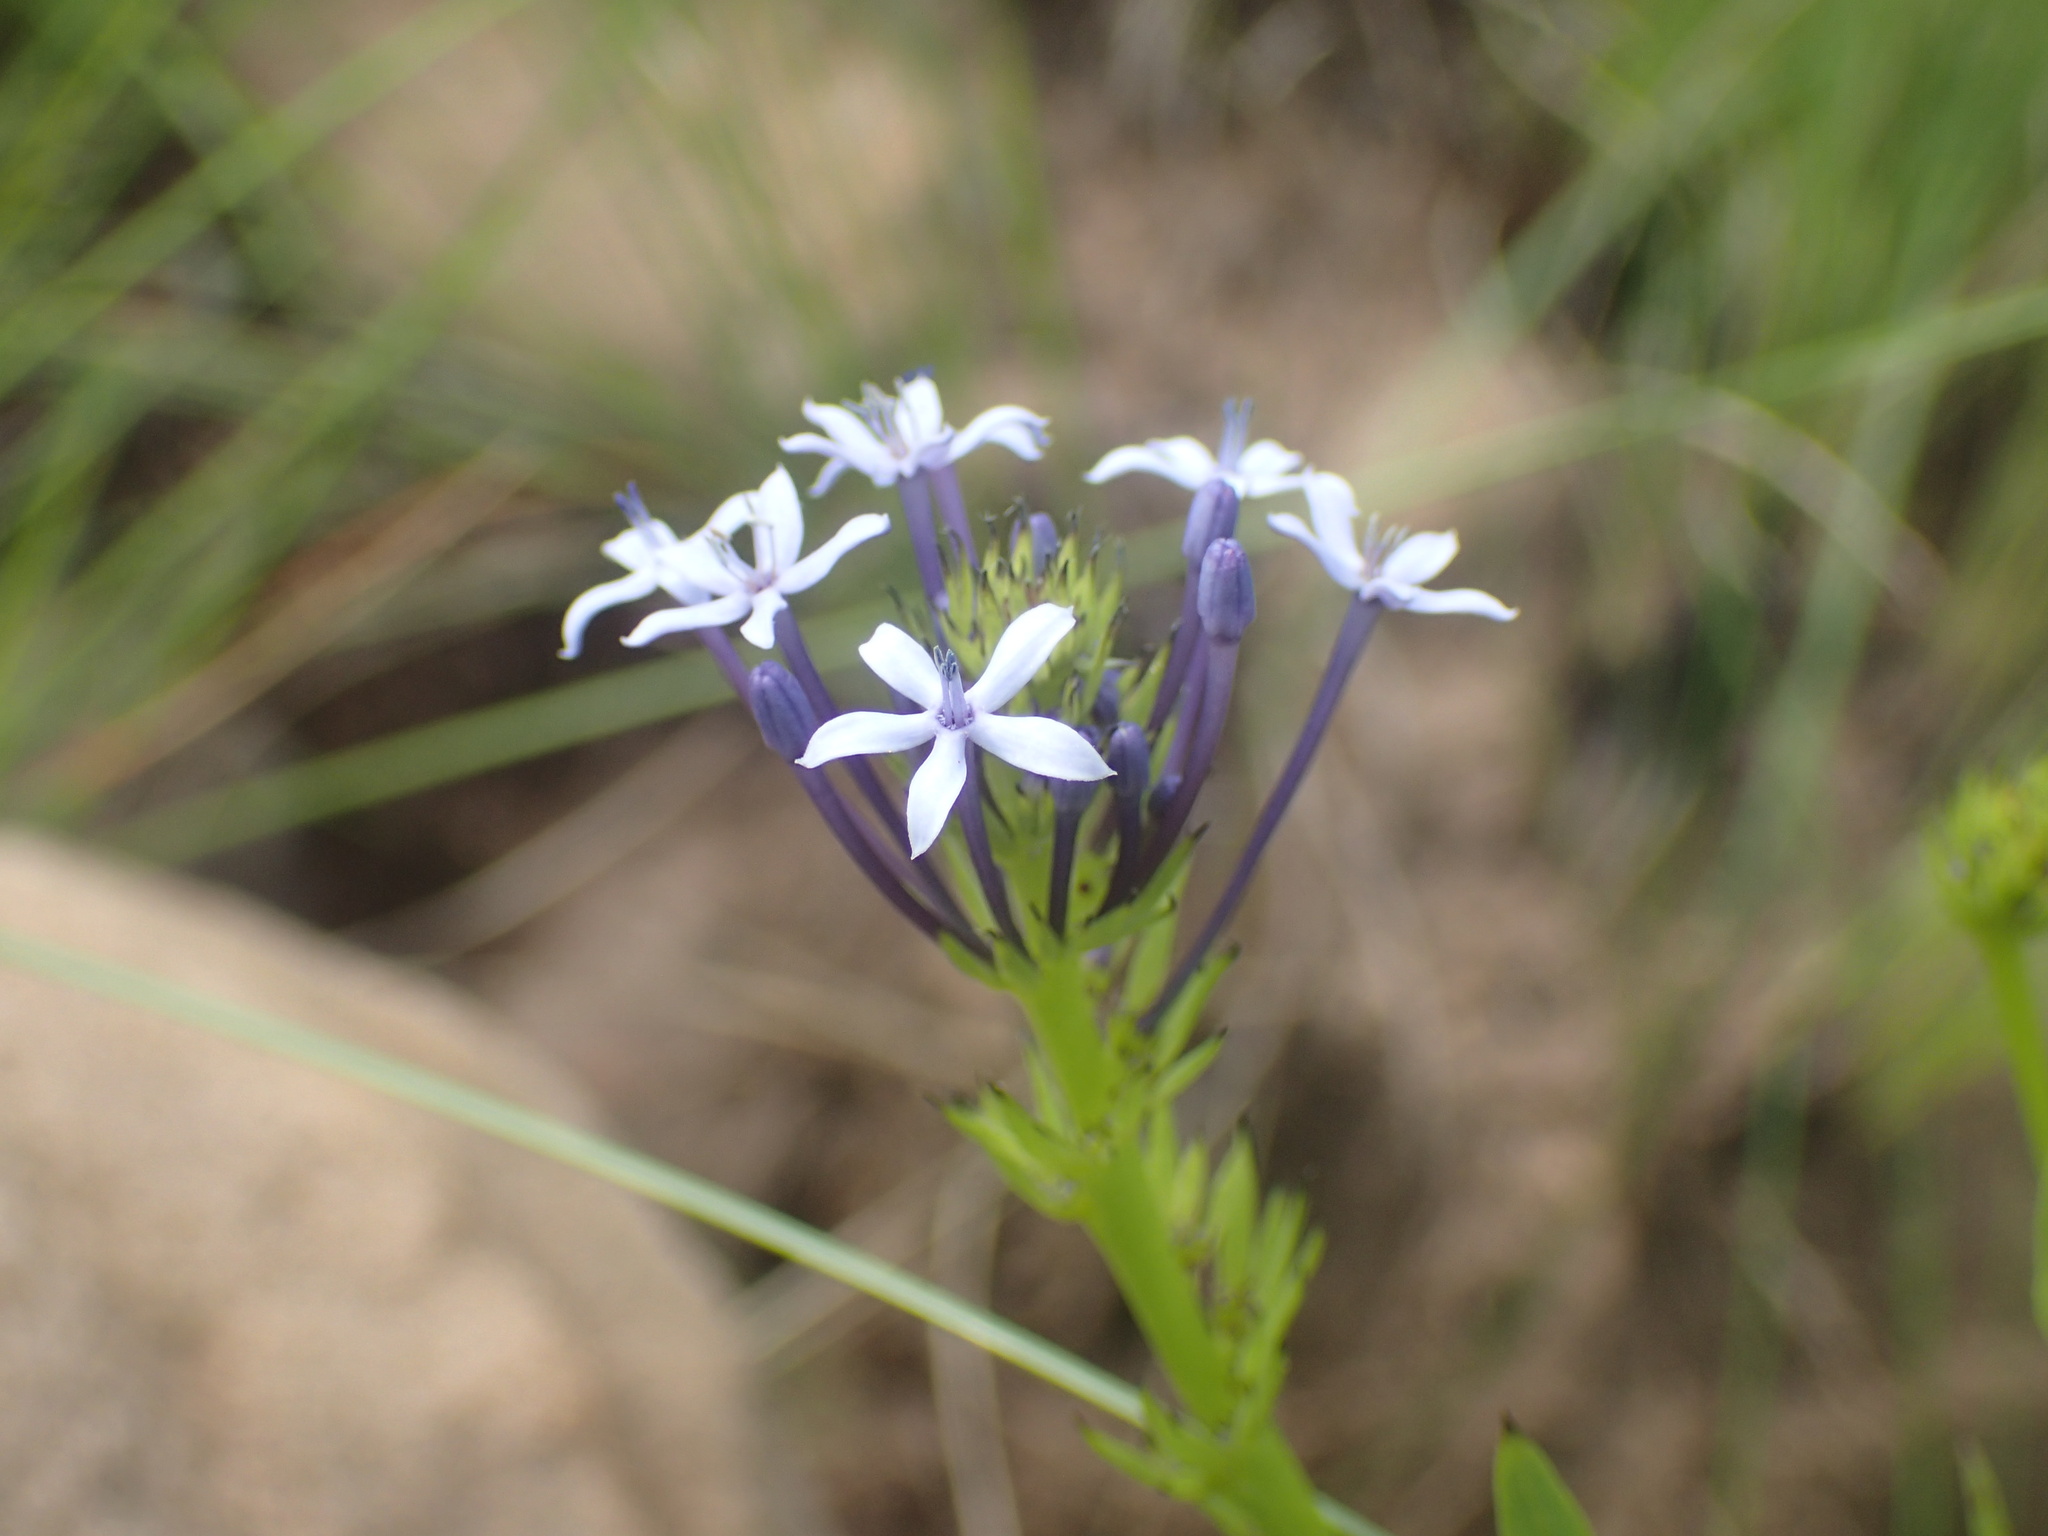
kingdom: Plantae
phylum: Tracheophyta
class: Magnoliopsida
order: Gentianales
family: Rubiaceae
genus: Pentanisia
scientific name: Pentanisia angustifolia
